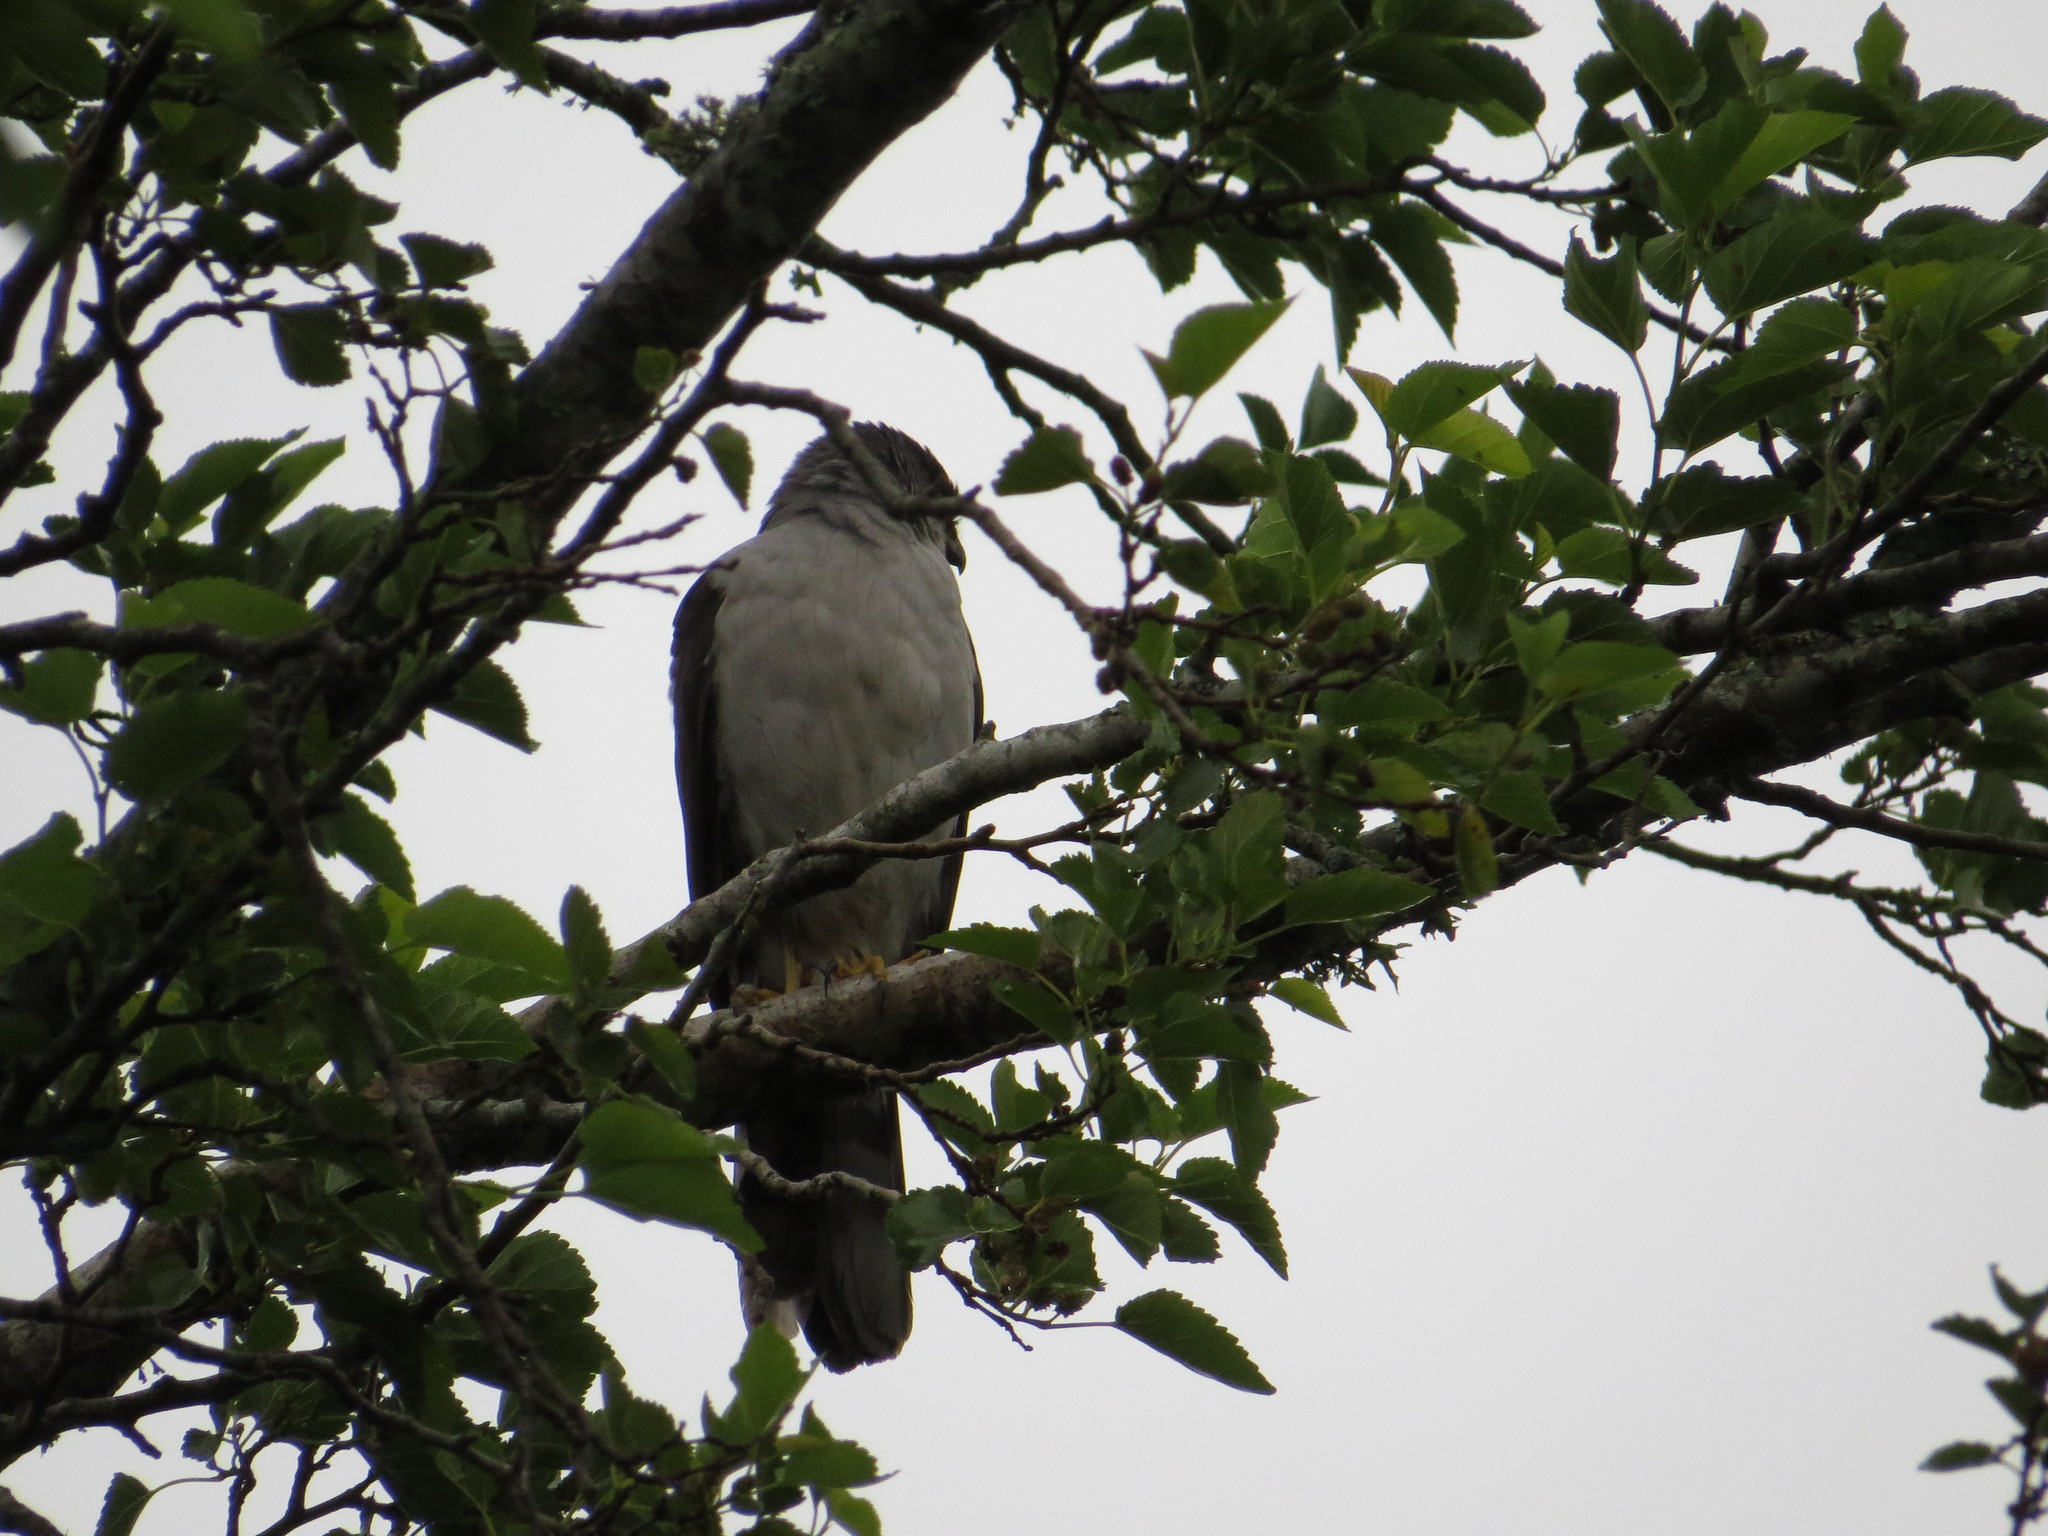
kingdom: Animalia
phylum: Chordata
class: Aves
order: Accipitriformes
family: Accipitridae
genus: Accipiter
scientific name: Accipiter striatus
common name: Sharp-shinned hawk
